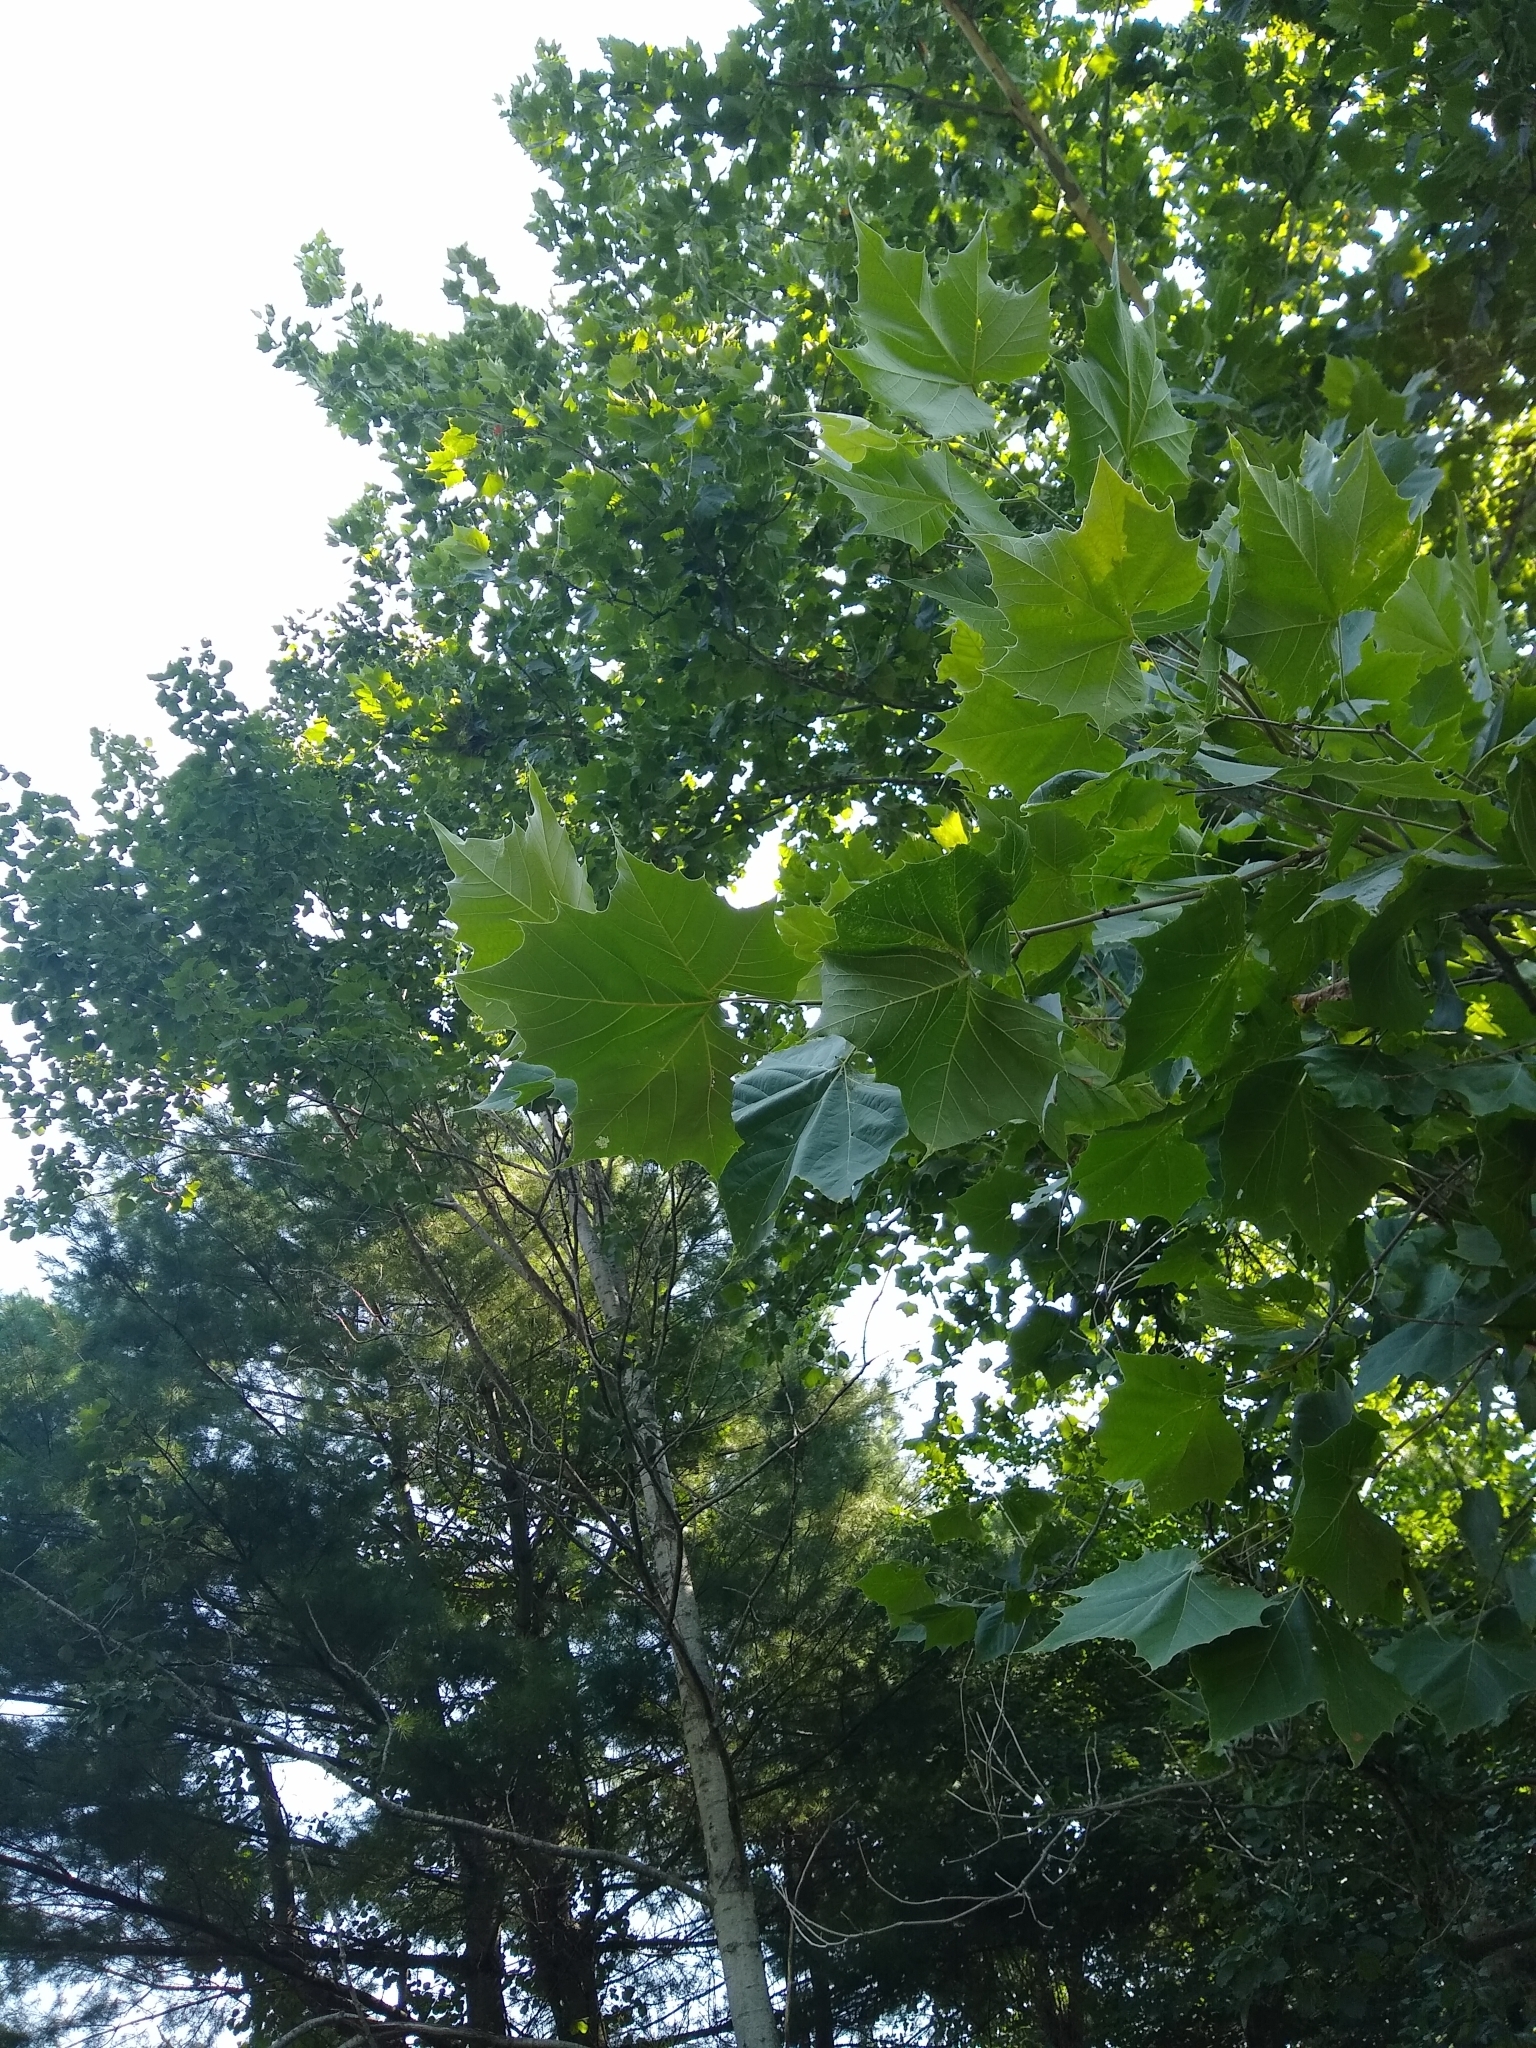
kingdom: Plantae
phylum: Tracheophyta
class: Magnoliopsida
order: Proteales
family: Platanaceae
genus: Platanus
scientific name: Platanus occidentalis
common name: American sycamore
